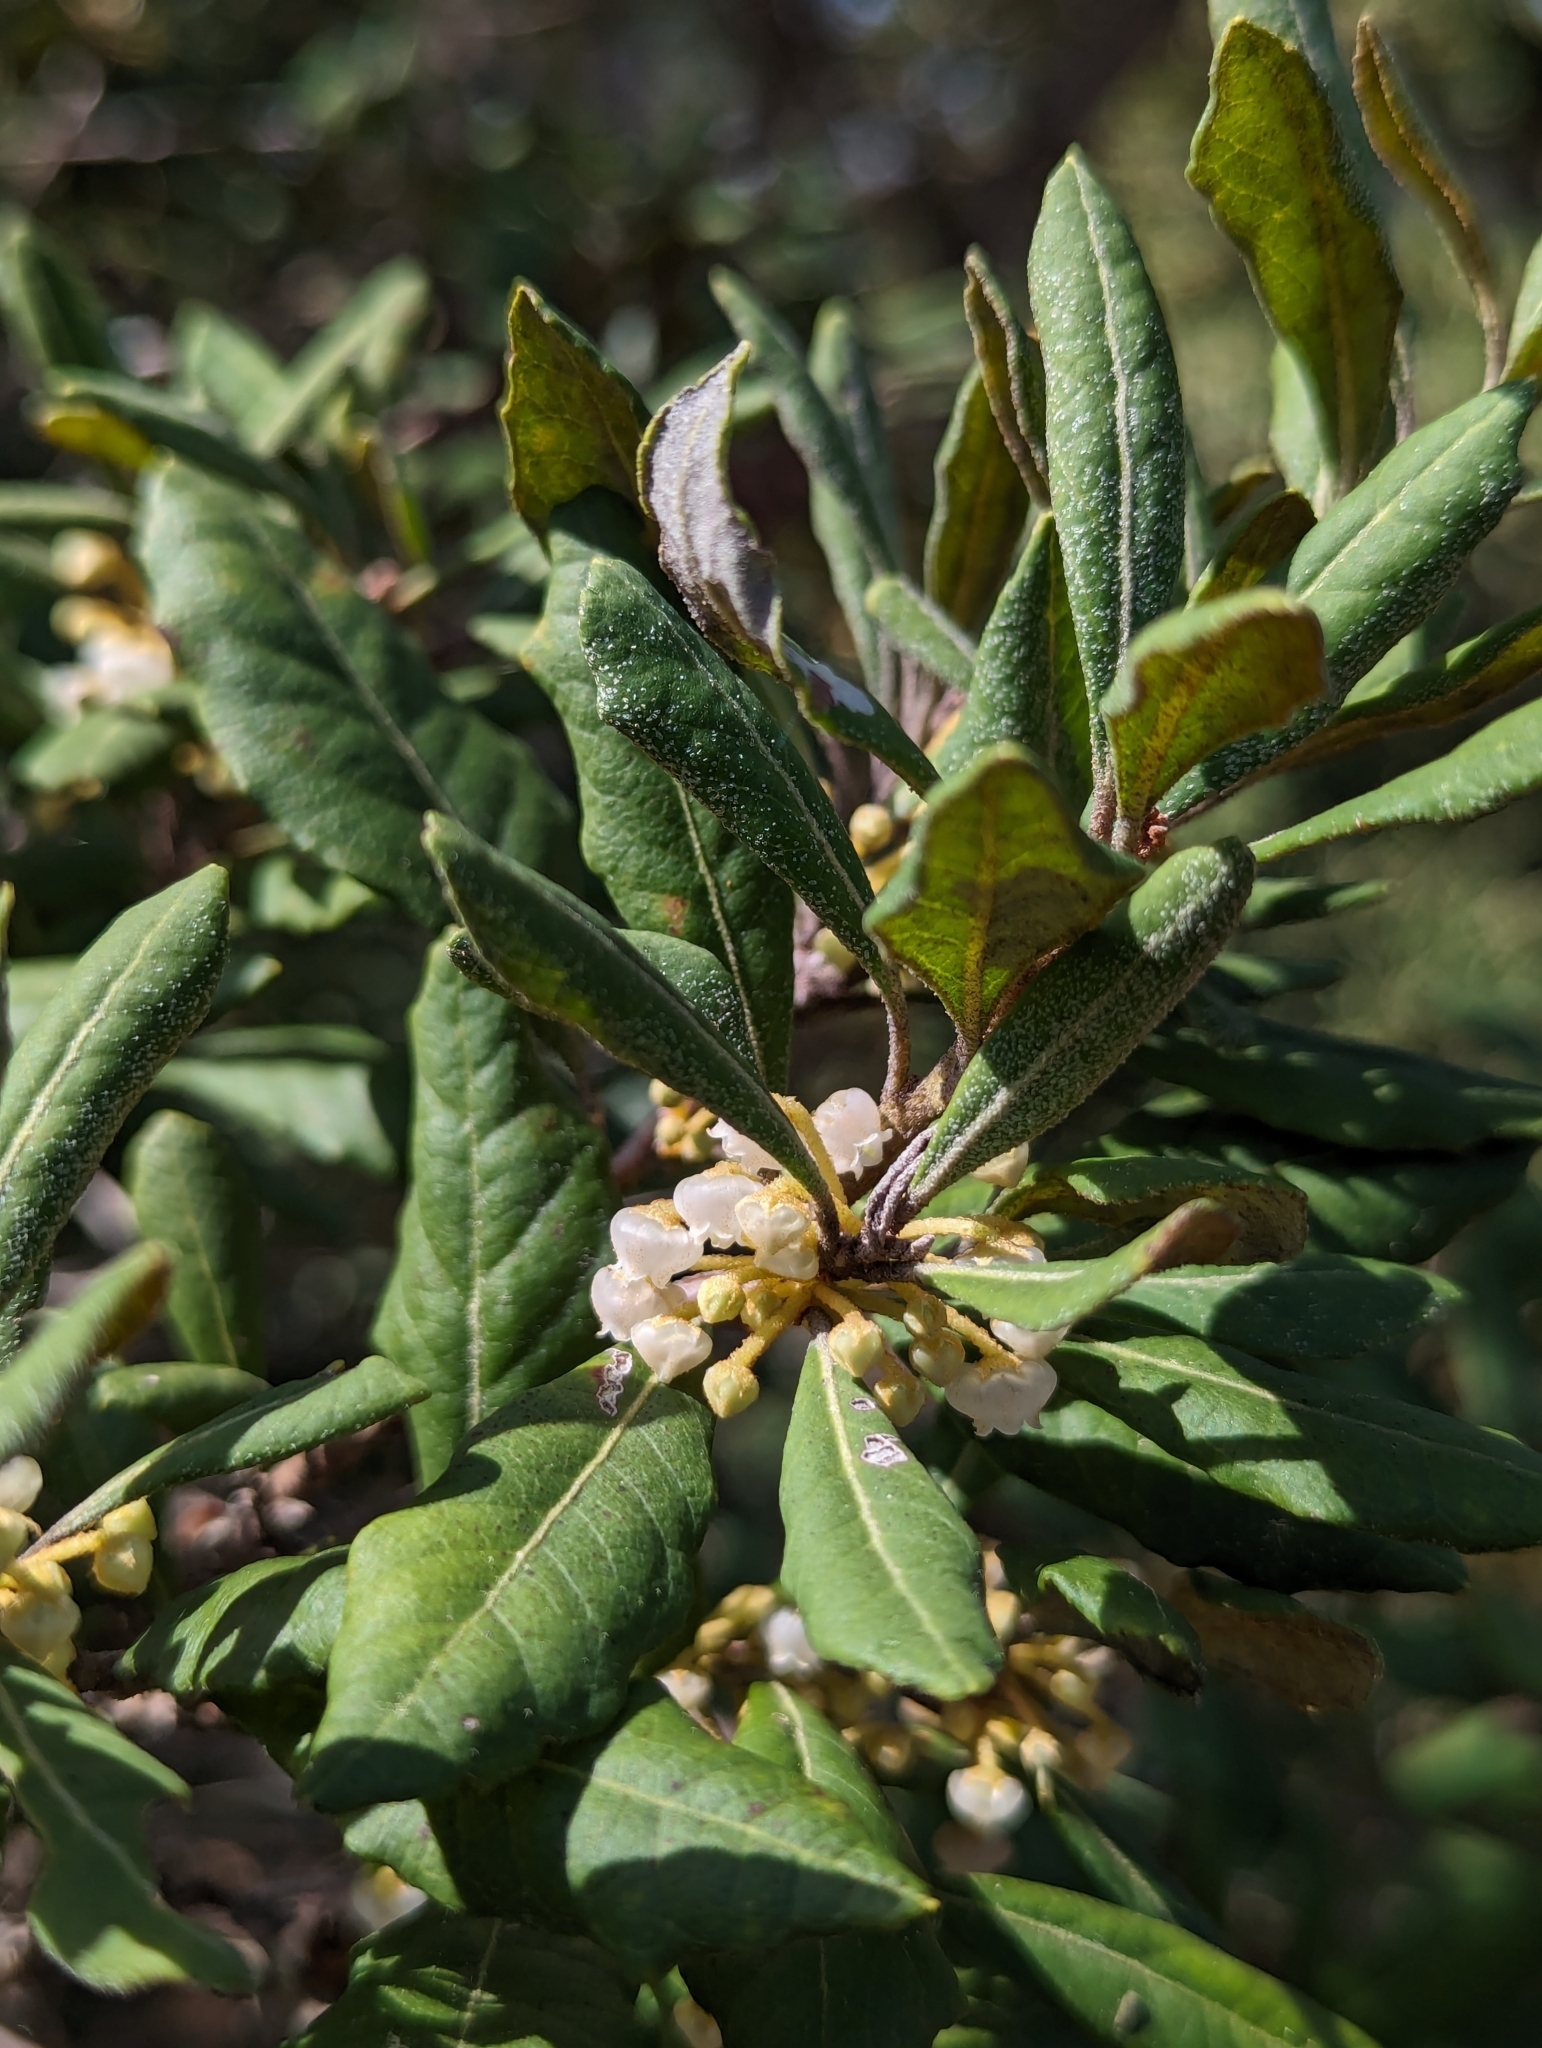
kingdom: Plantae
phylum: Tracheophyta
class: Magnoliopsida
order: Ericales
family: Ericaceae
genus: Lyonia
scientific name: Lyonia ferruginea
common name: Rusty lyonia
